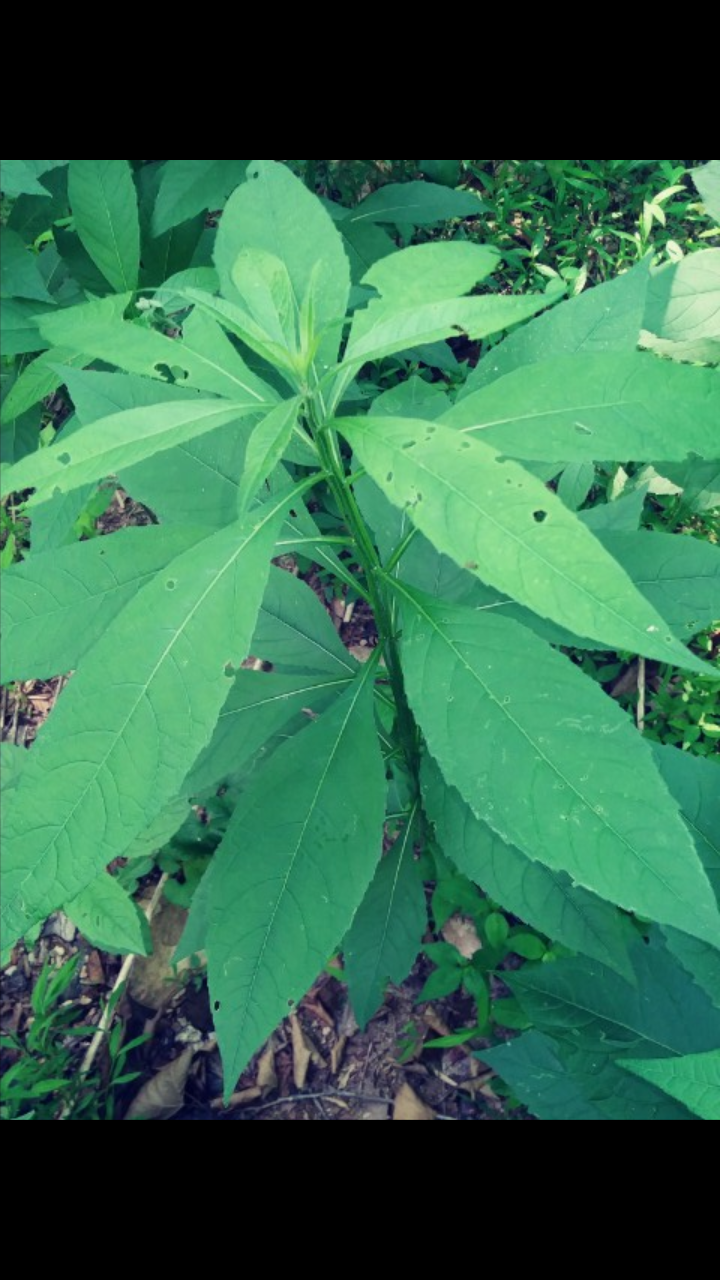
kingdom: Plantae
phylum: Tracheophyta
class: Magnoliopsida
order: Asterales
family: Asteraceae
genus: Verbesina
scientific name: Verbesina alternifolia
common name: Wingstem
